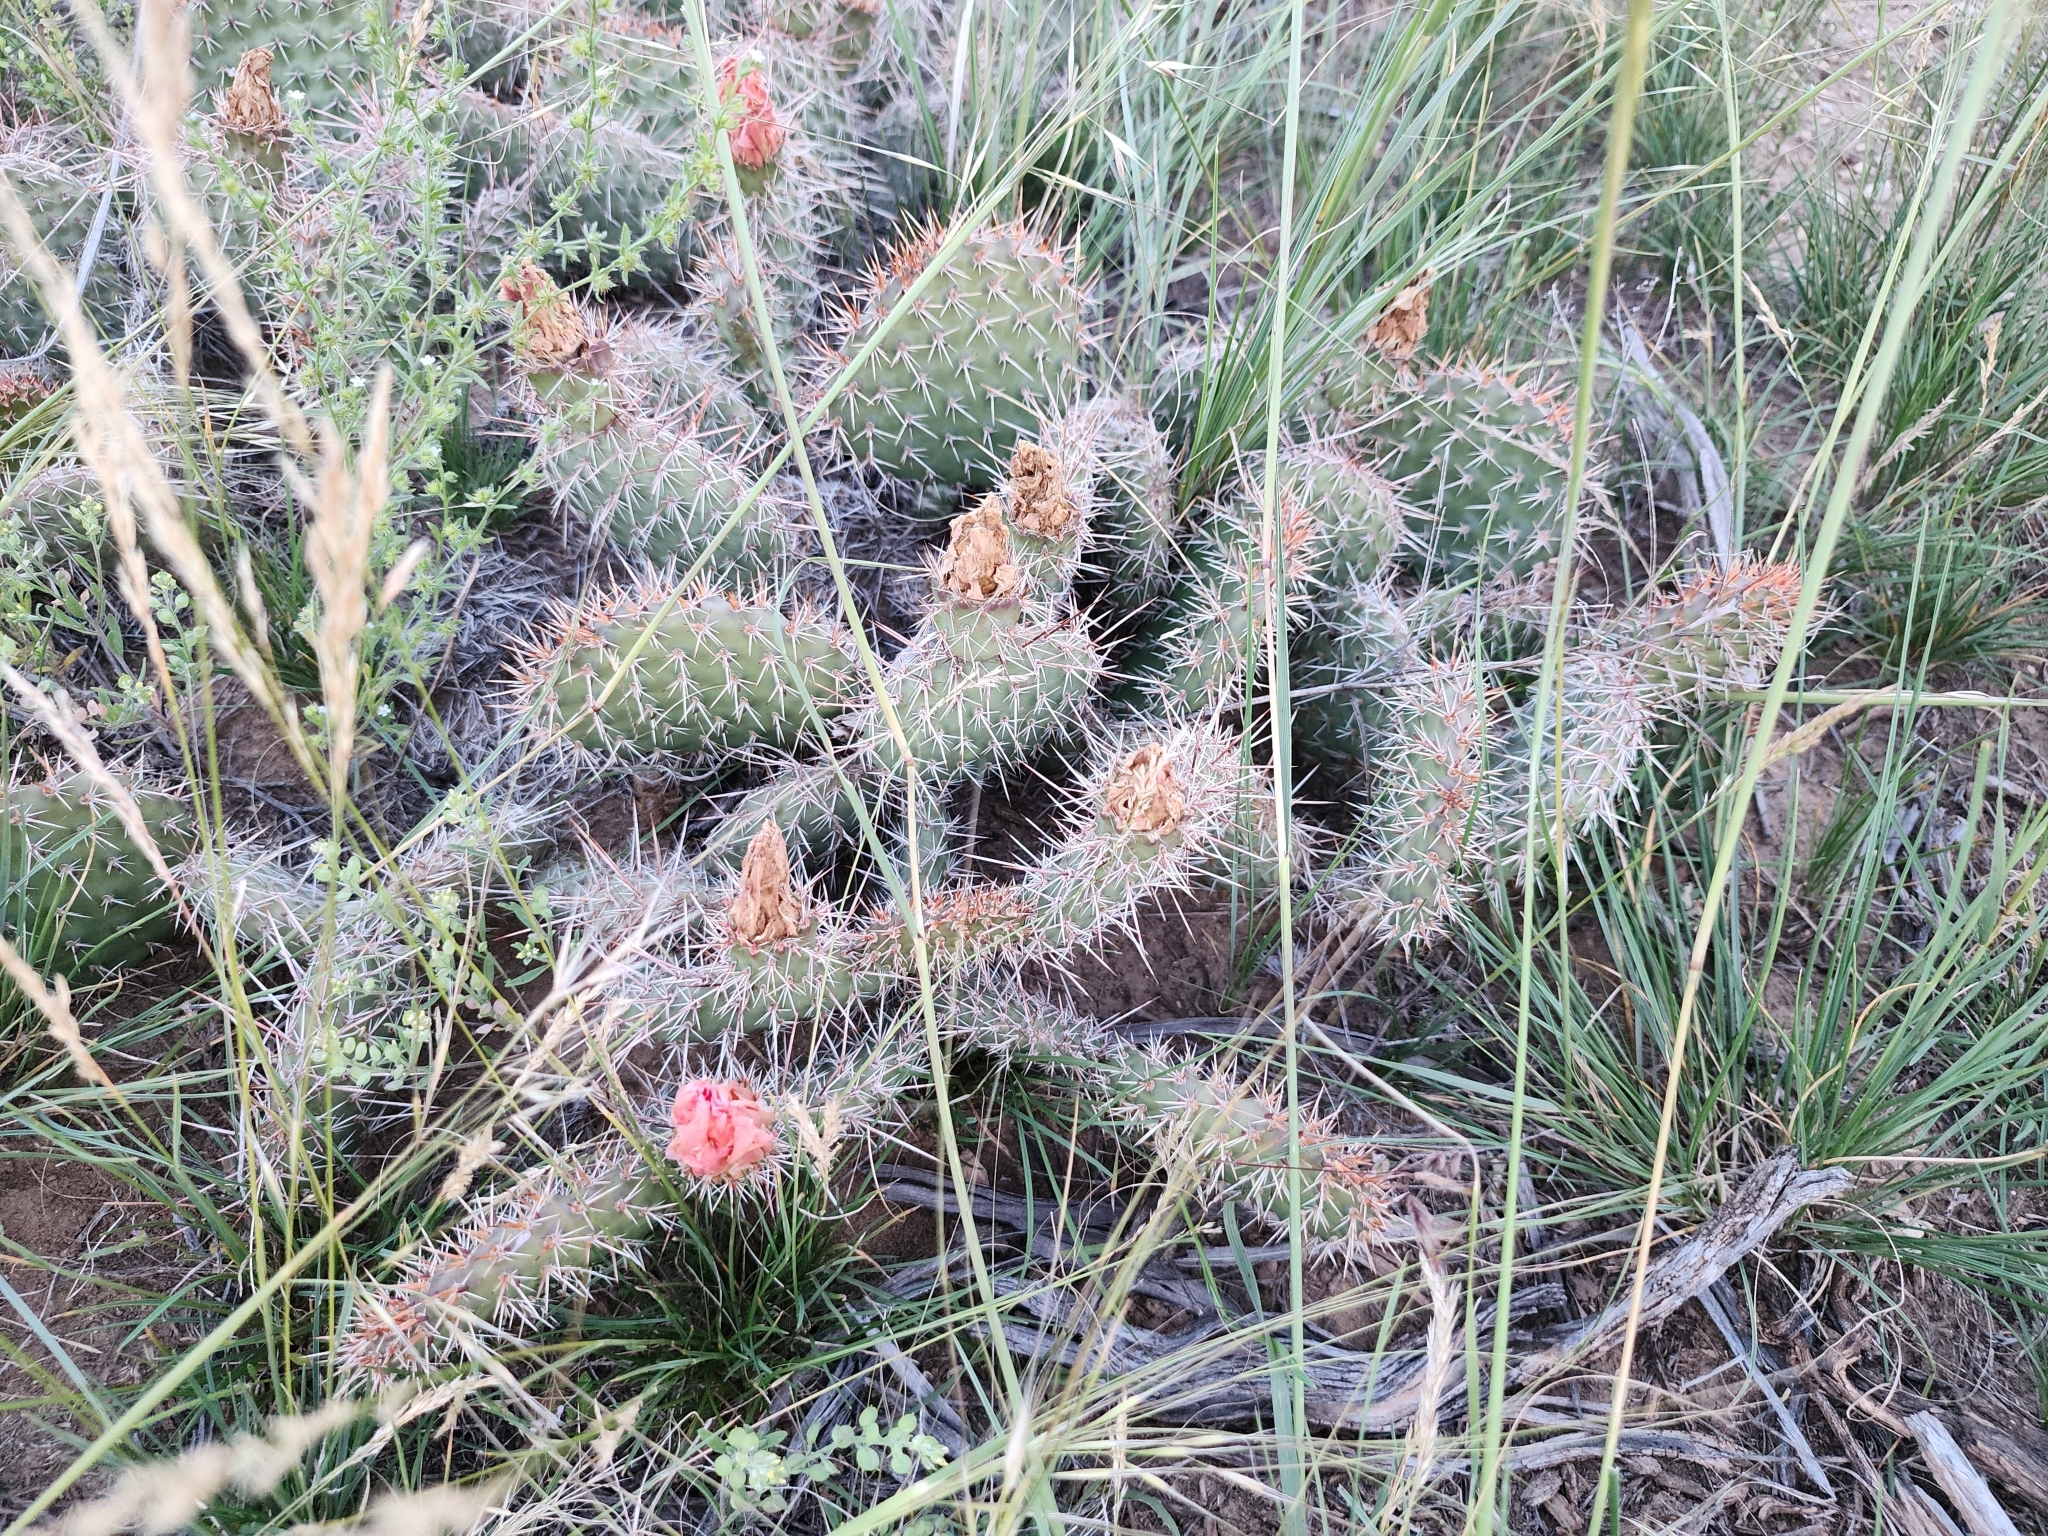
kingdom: Plantae
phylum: Tracheophyta
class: Magnoliopsida
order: Caryophyllales
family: Cactaceae
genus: Opuntia
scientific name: Opuntia polyacantha
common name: Plains prickly-pear
